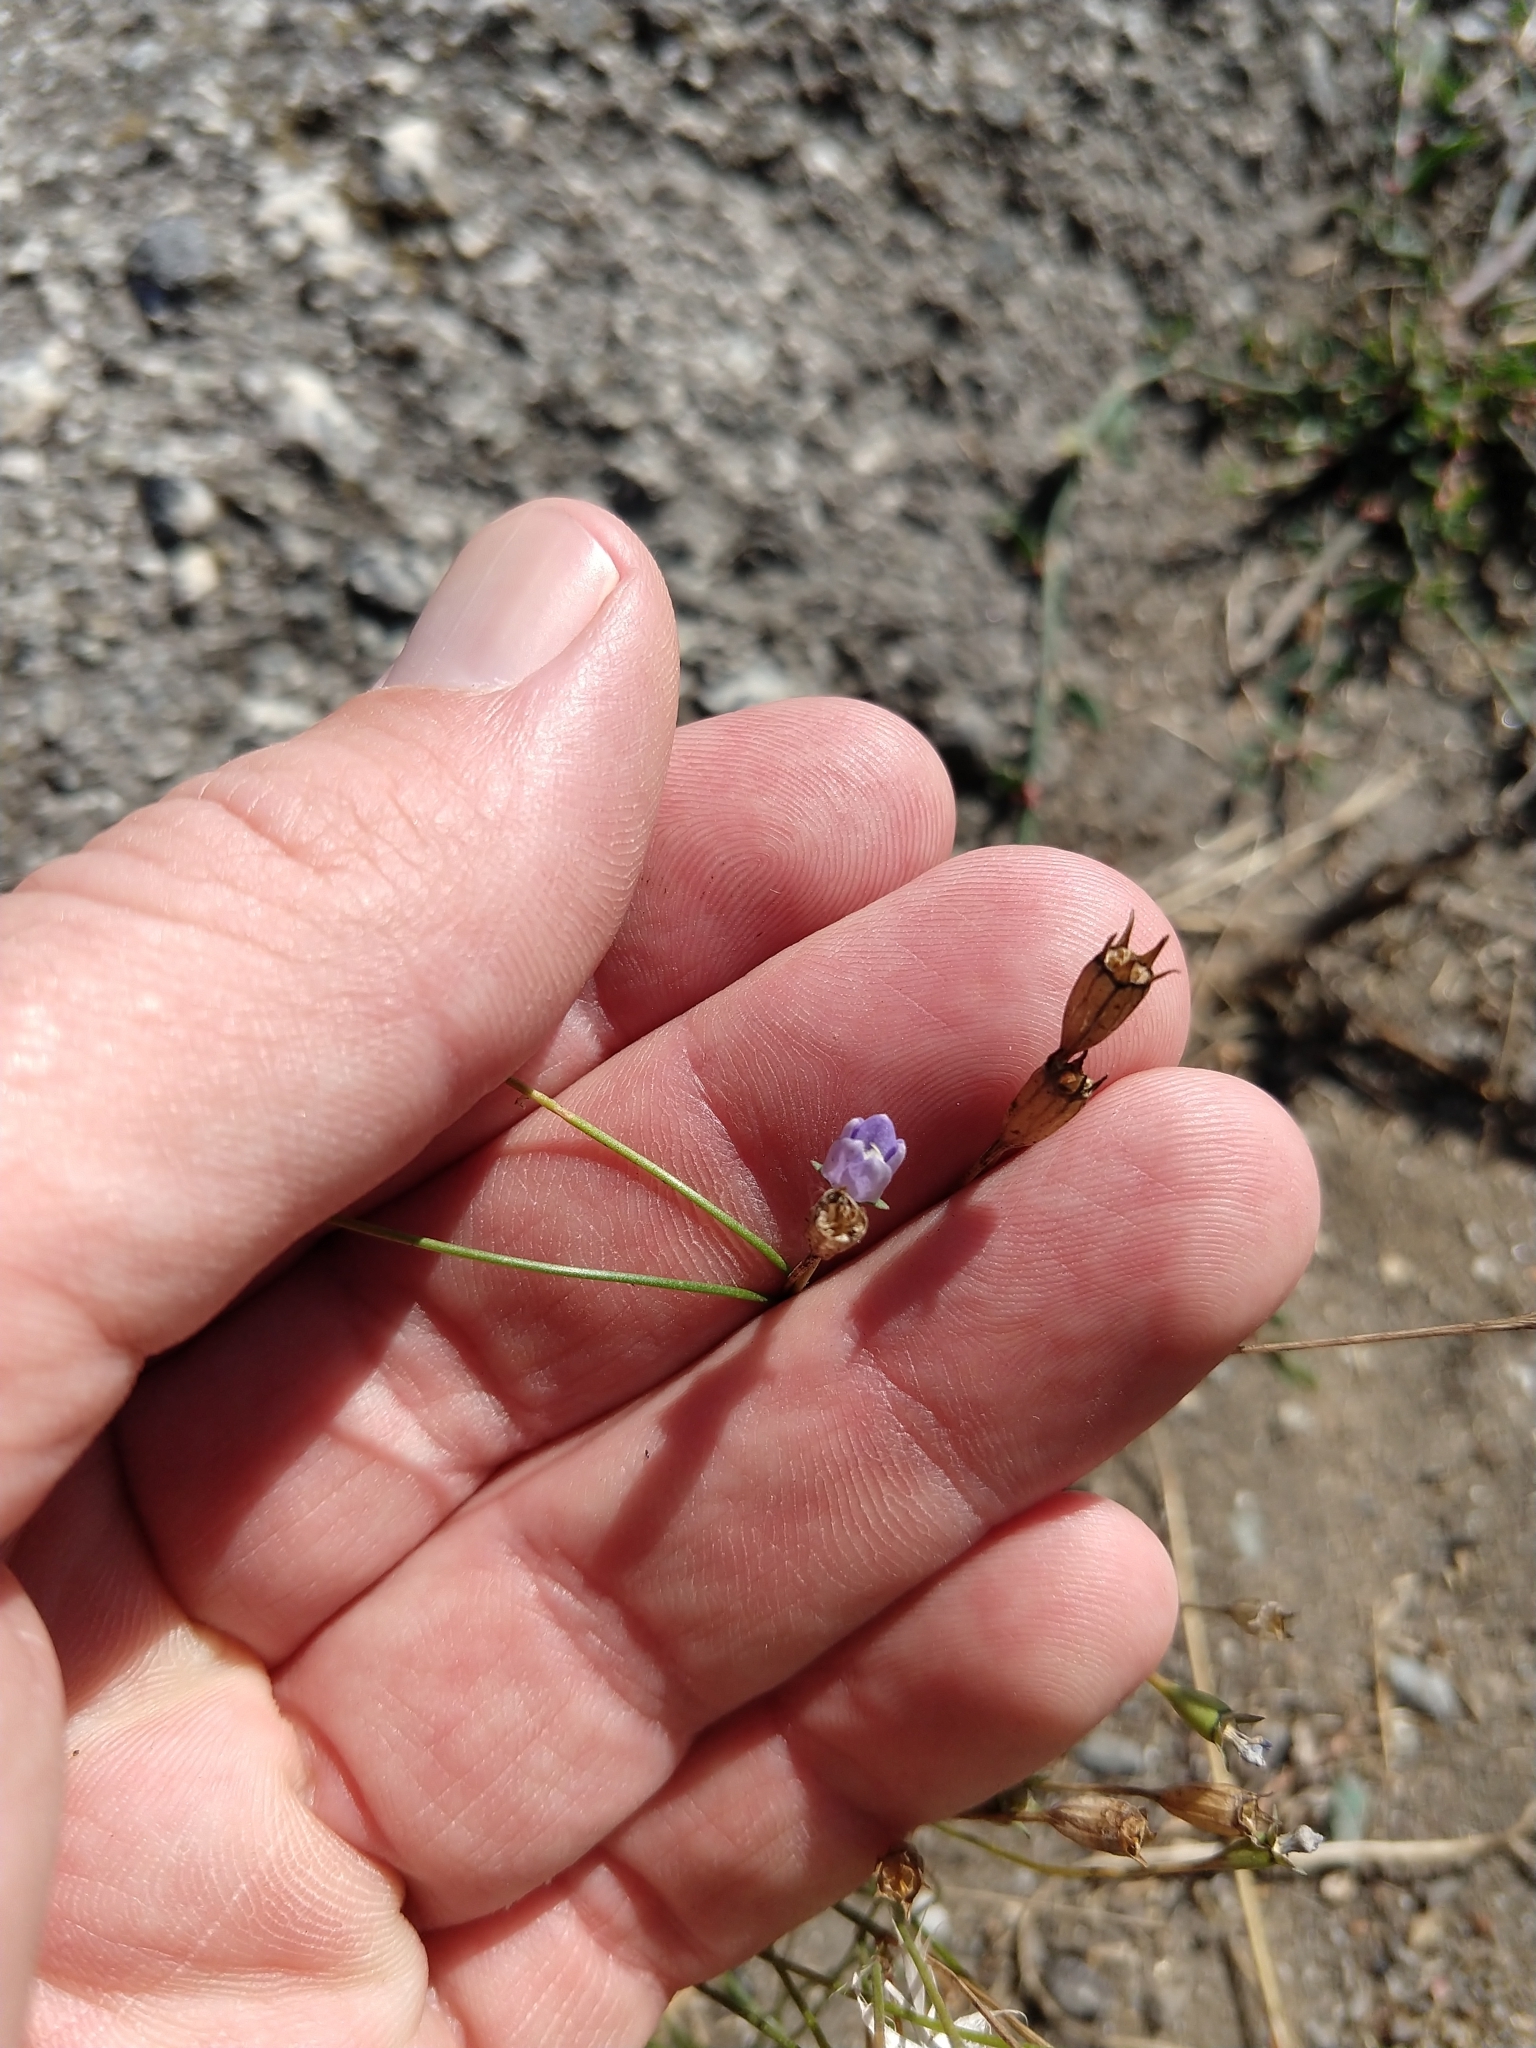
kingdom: Plantae
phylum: Tracheophyta
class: Magnoliopsida
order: Asterales
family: Campanulaceae
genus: Wahlenbergia
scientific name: Wahlenbergia marginata
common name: Southern rockbell
